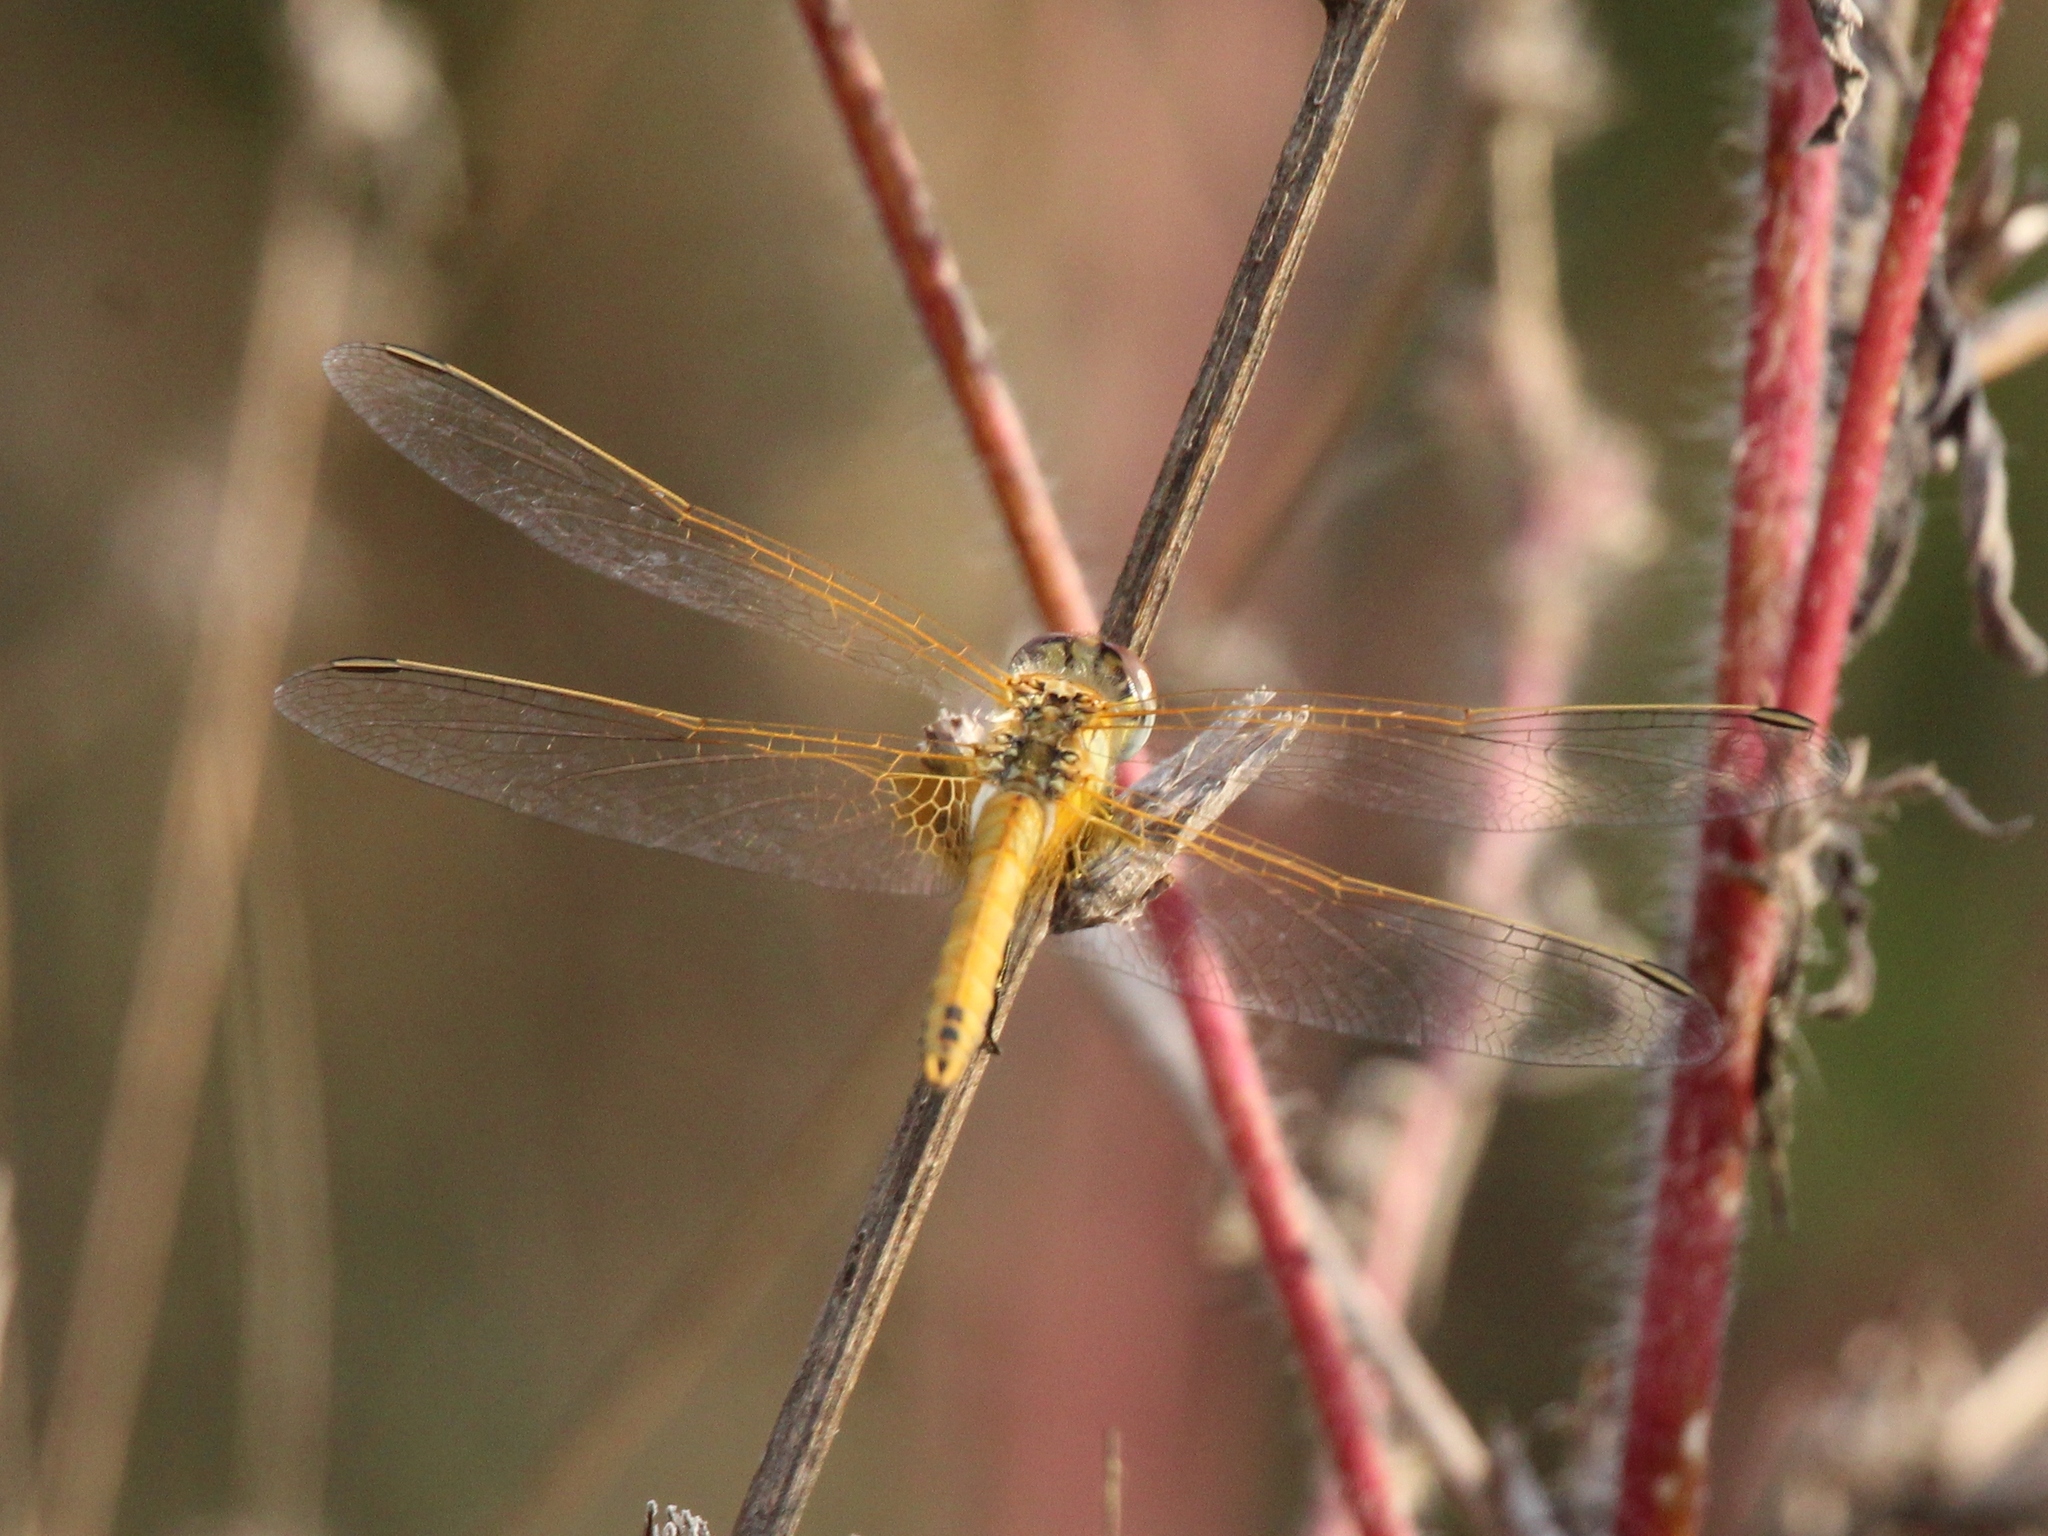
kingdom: Animalia
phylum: Arthropoda
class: Insecta
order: Odonata
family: Libellulidae
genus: Sympetrum
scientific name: Sympetrum fonscolombii
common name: Red-veined darter
